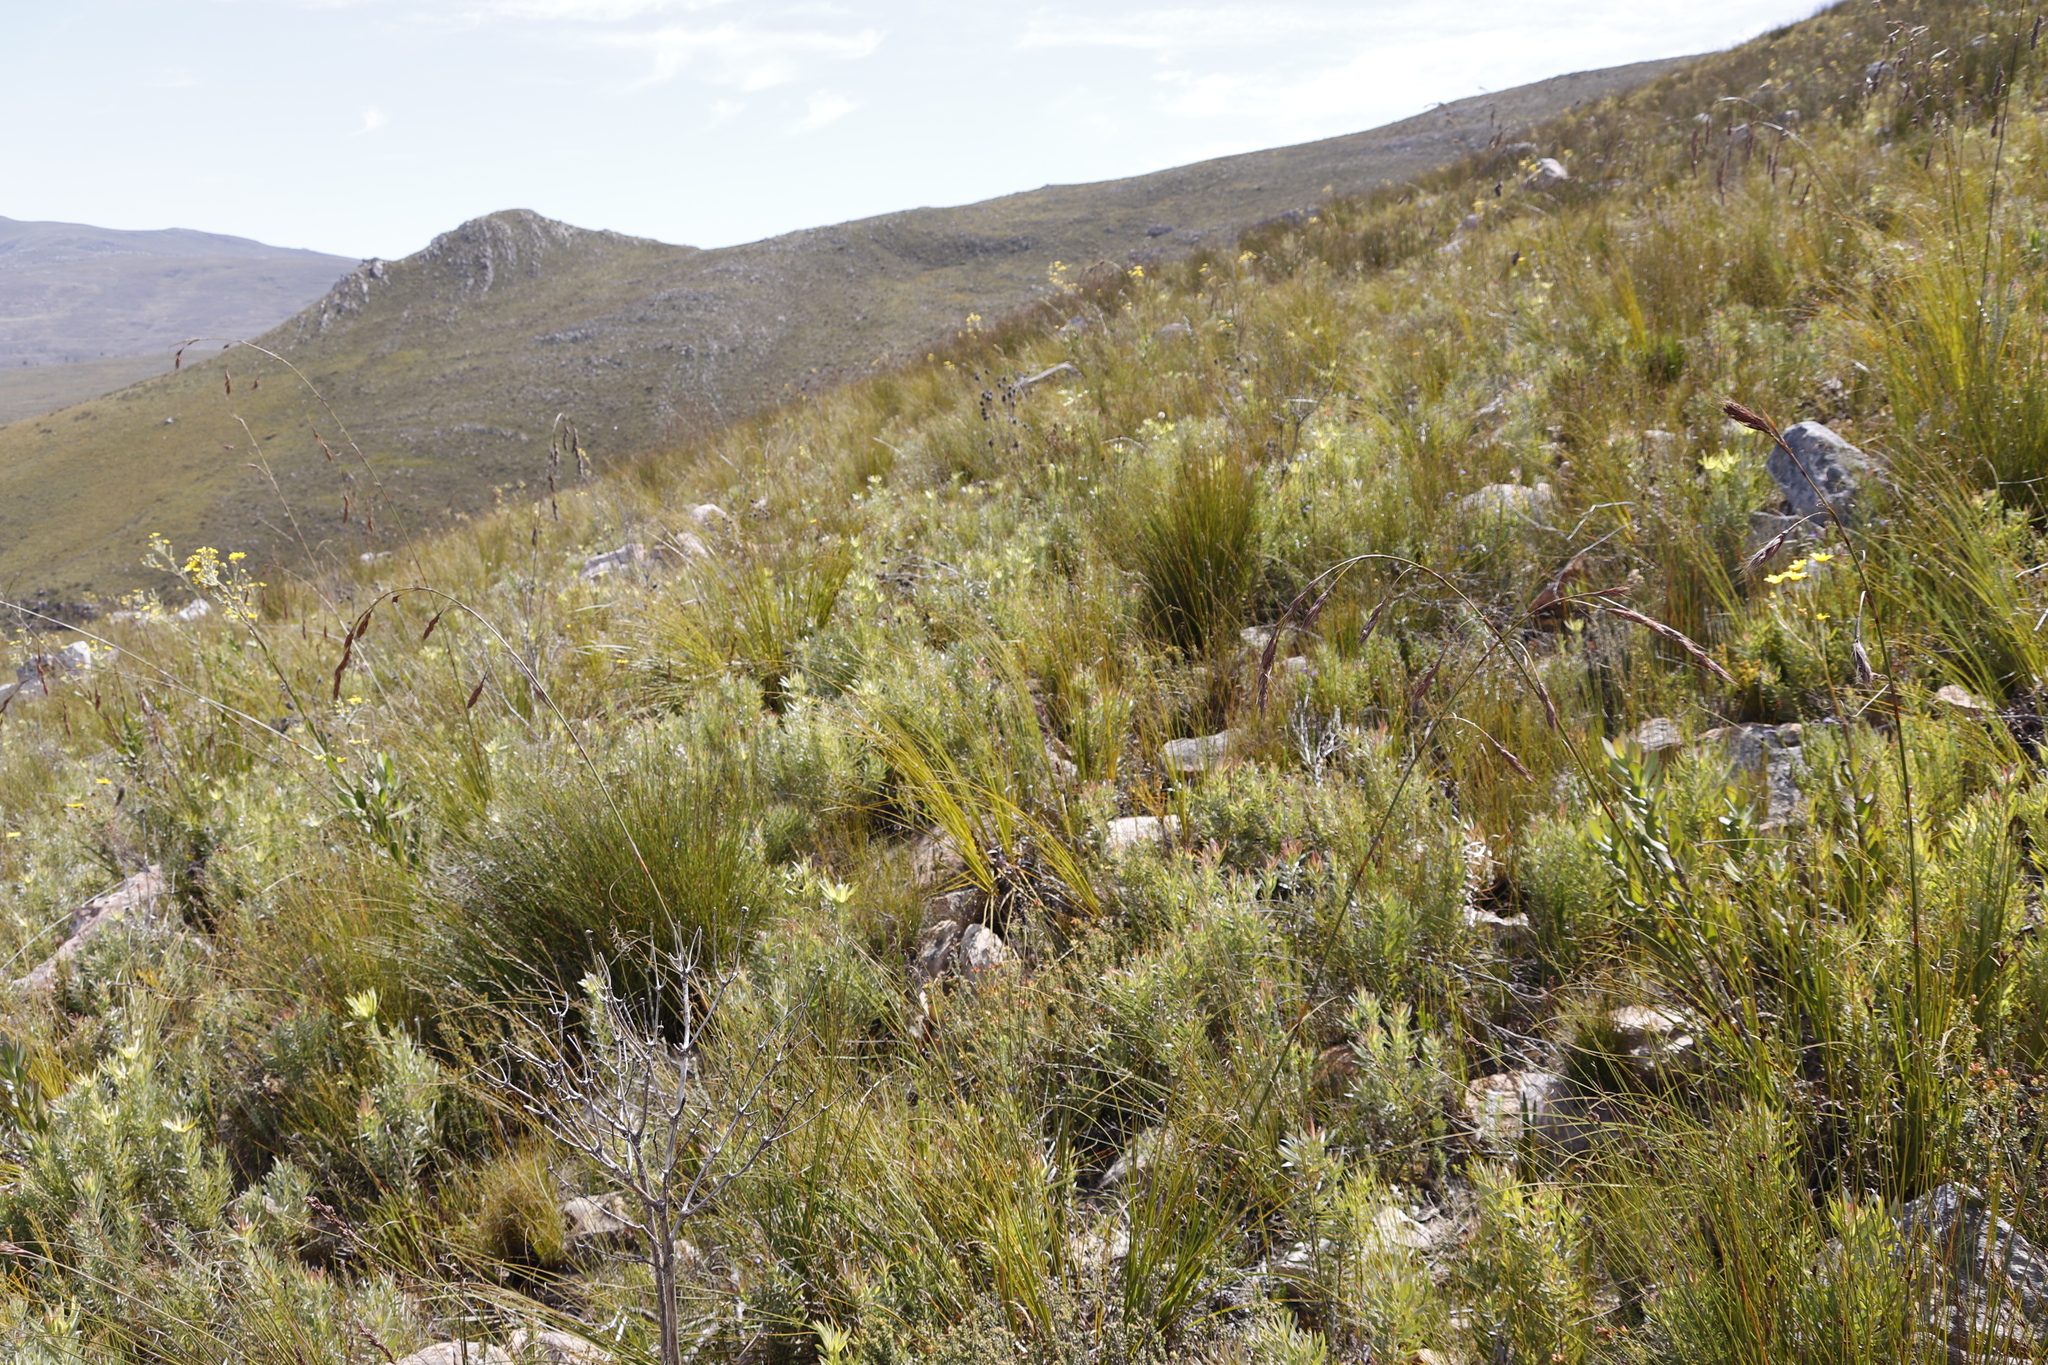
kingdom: Plantae
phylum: Tracheophyta
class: Magnoliopsida
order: Proteales
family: Proteaceae
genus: Leucadendron
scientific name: Leucadendron xanthoconus
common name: Sickle-leaf conebush
